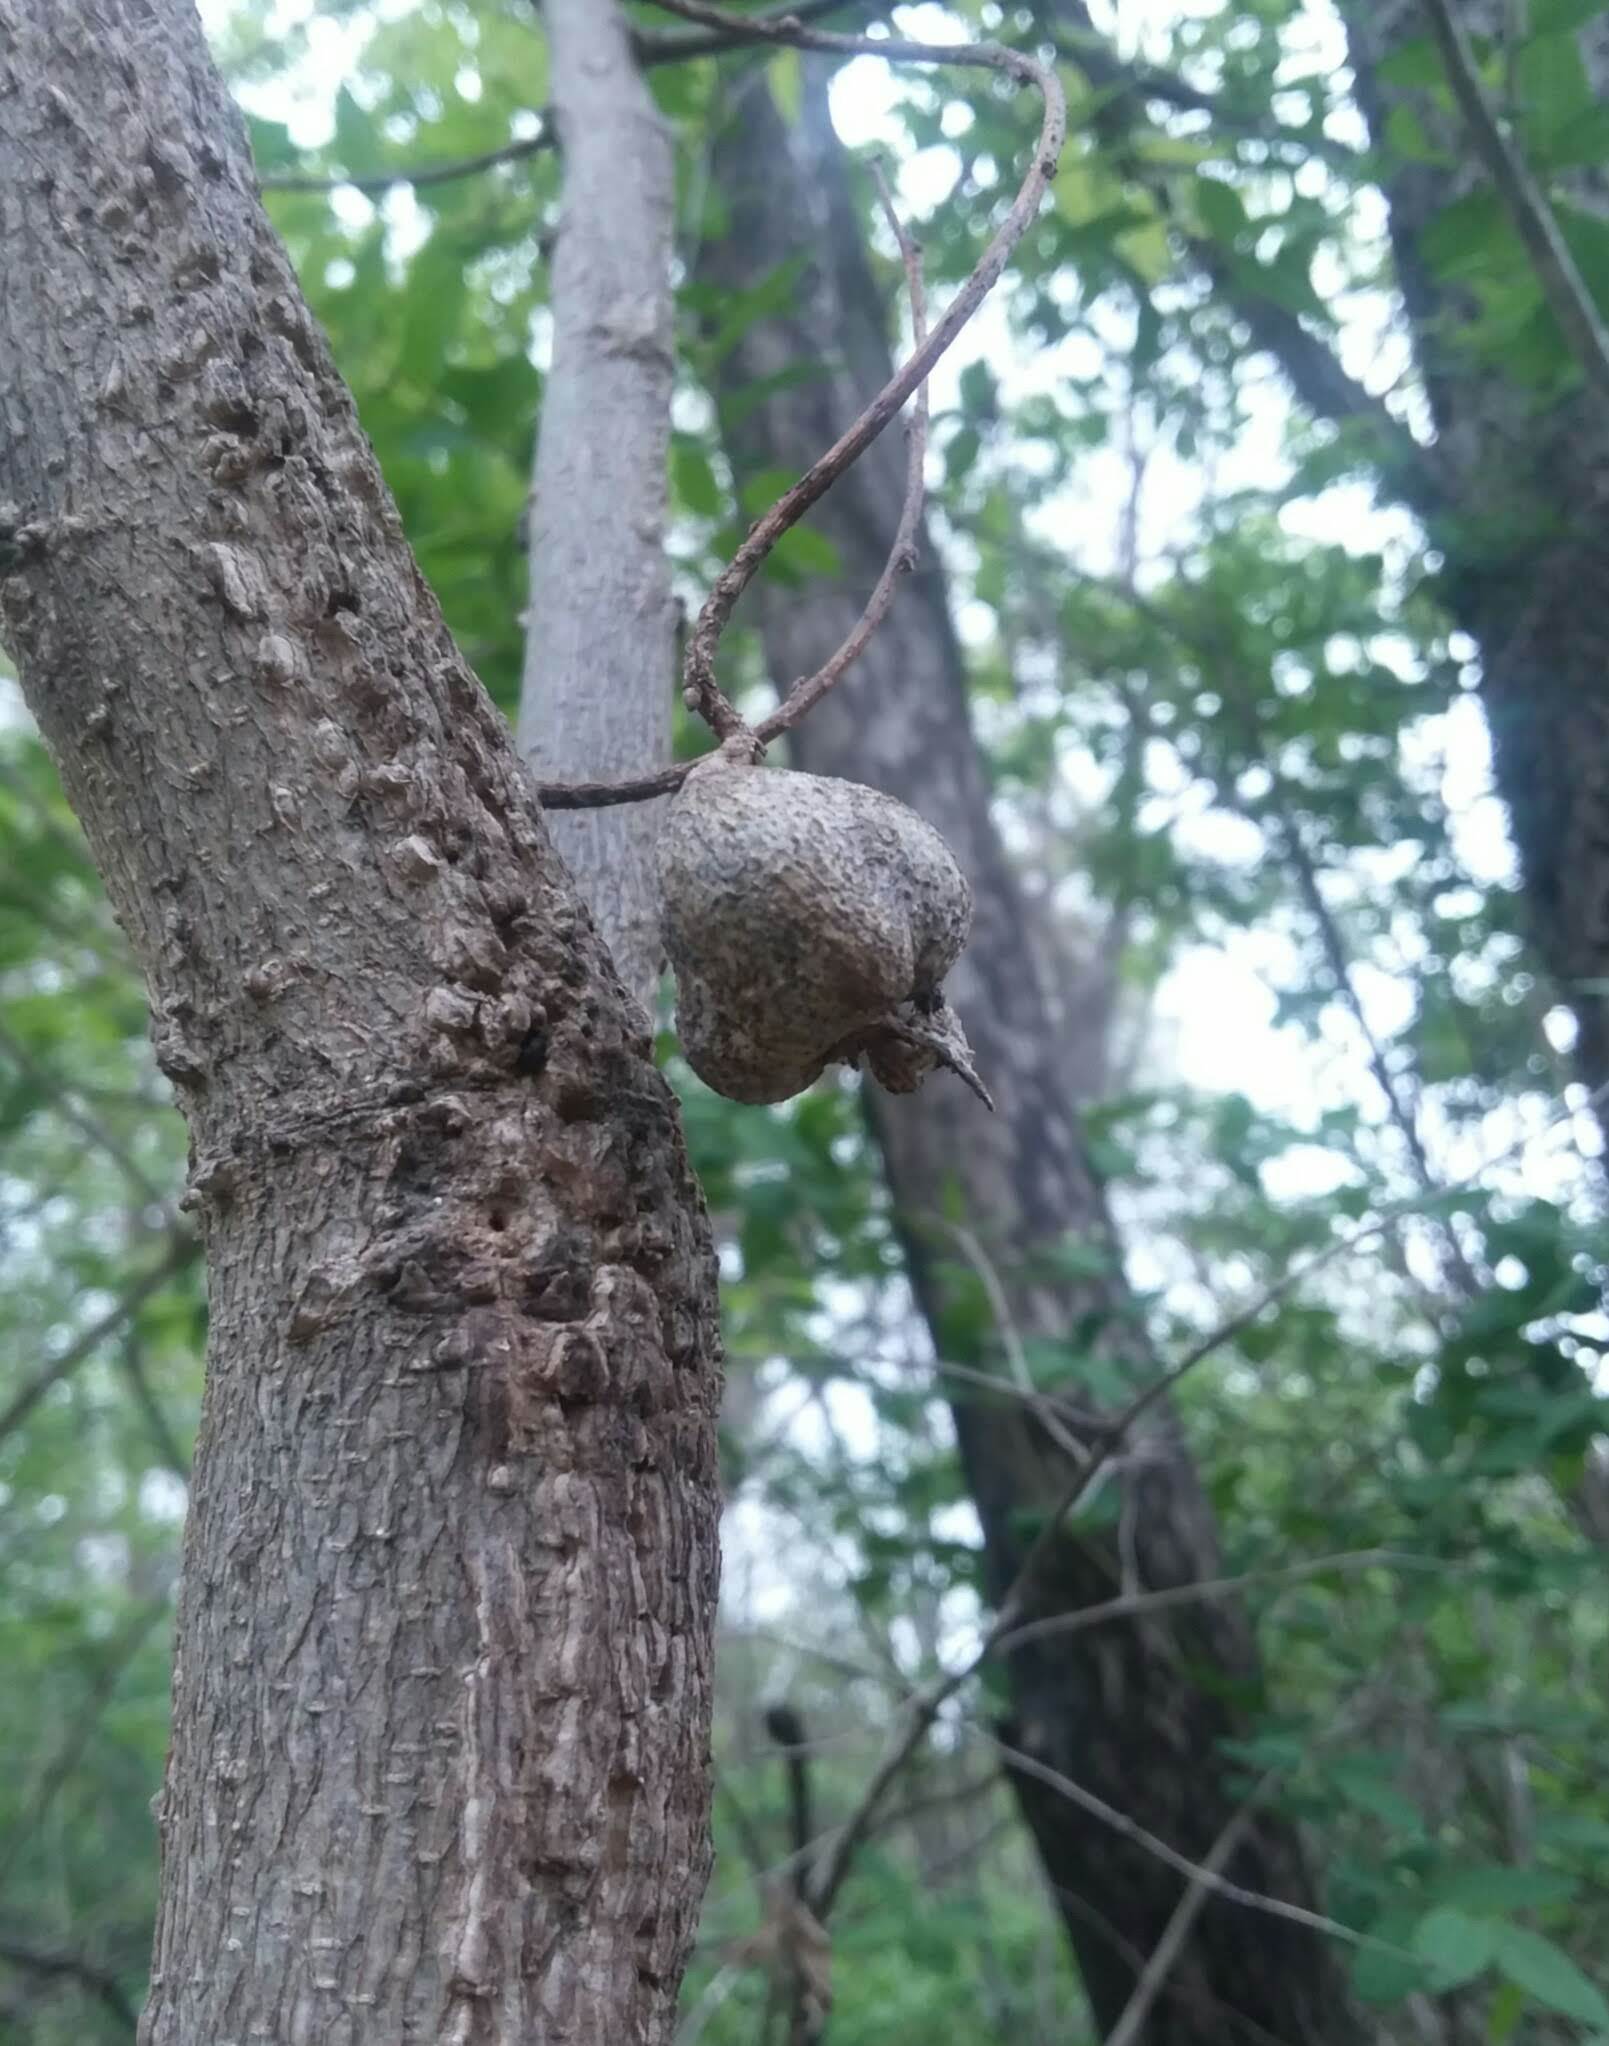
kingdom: Animalia
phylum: Arthropoda
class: Insecta
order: Hemiptera
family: Aphalaridae
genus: Pachypsylla
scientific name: Pachypsylla venusta
